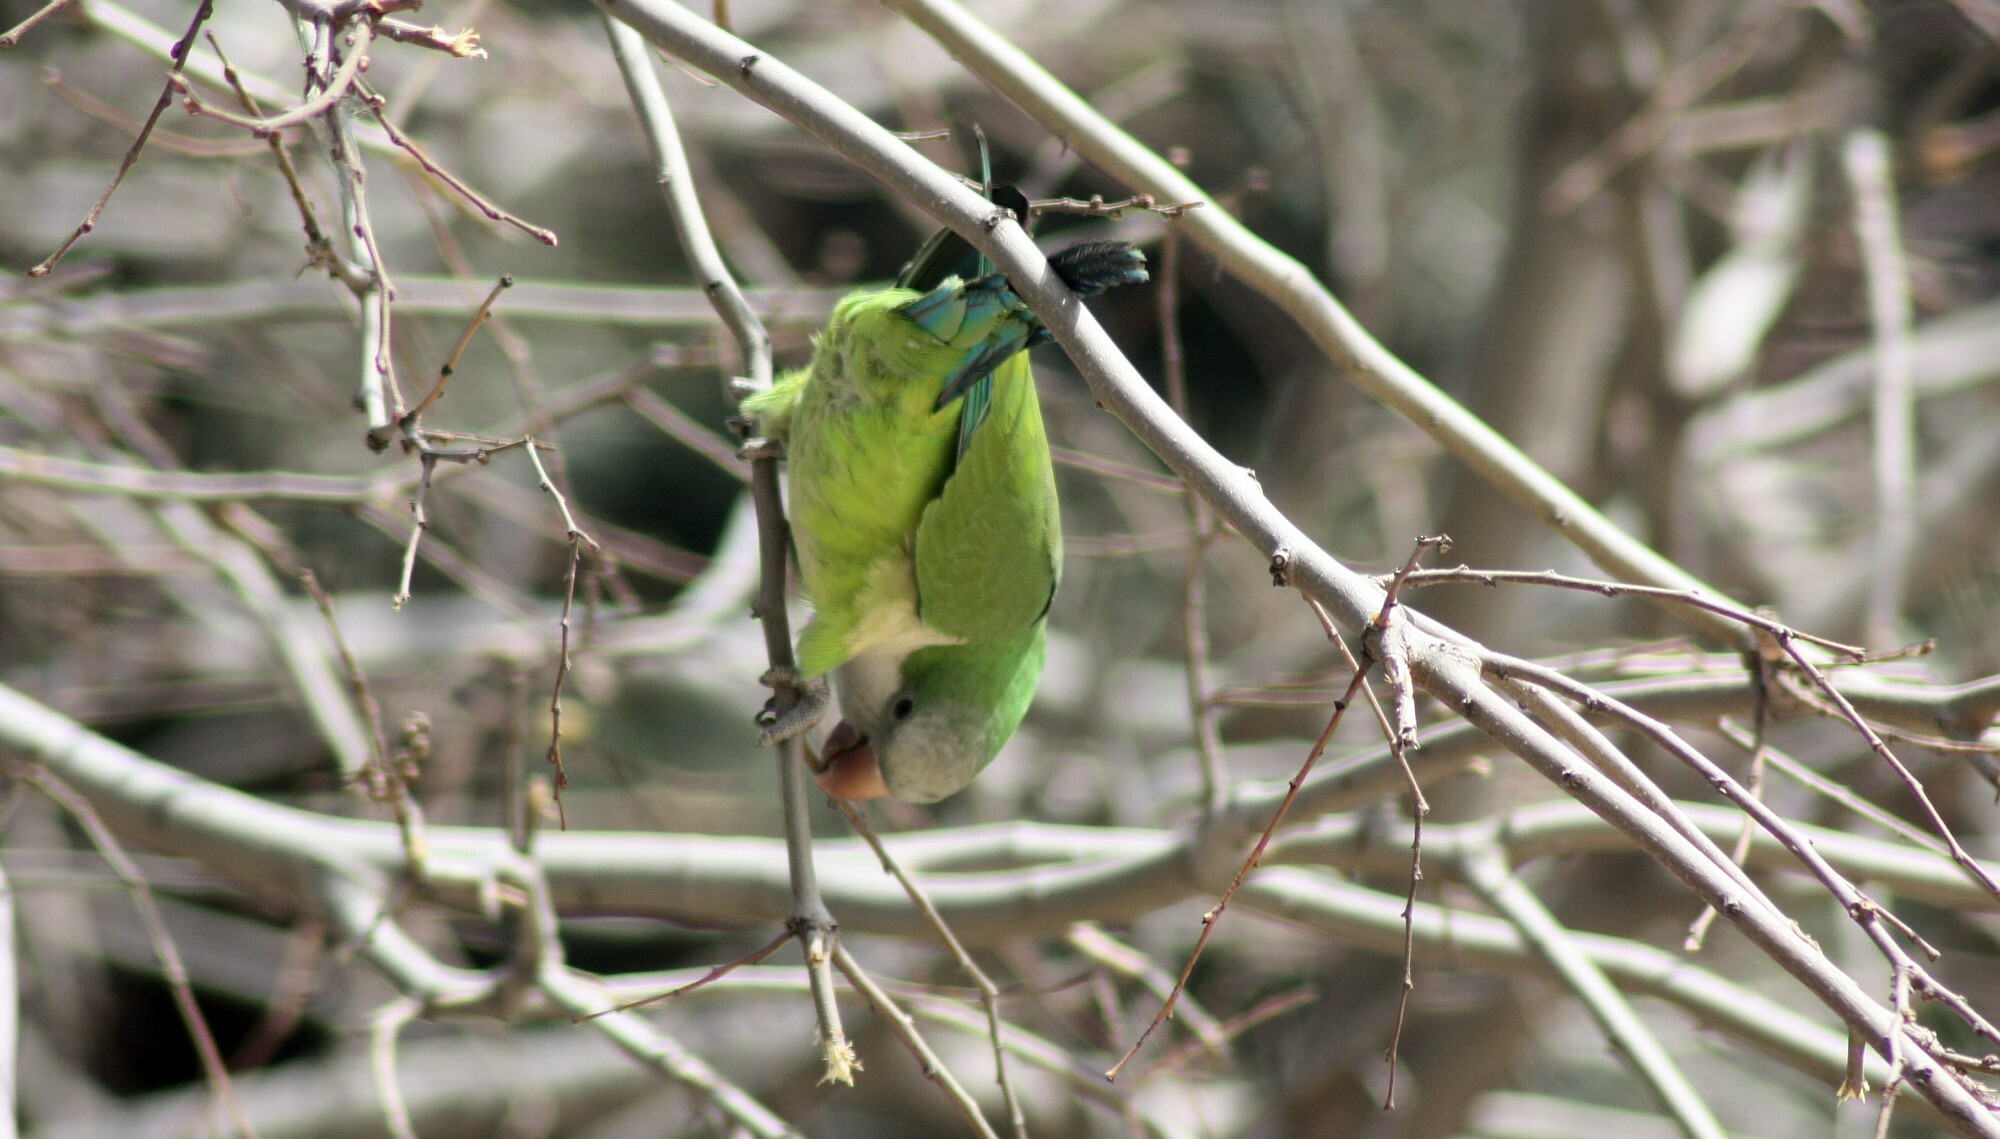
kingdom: Animalia
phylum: Chordata
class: Aves
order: Psittaciformes
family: Psittacidae
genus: Myiopsitta
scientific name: Myiopsitta monachus
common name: Monk parakeet
